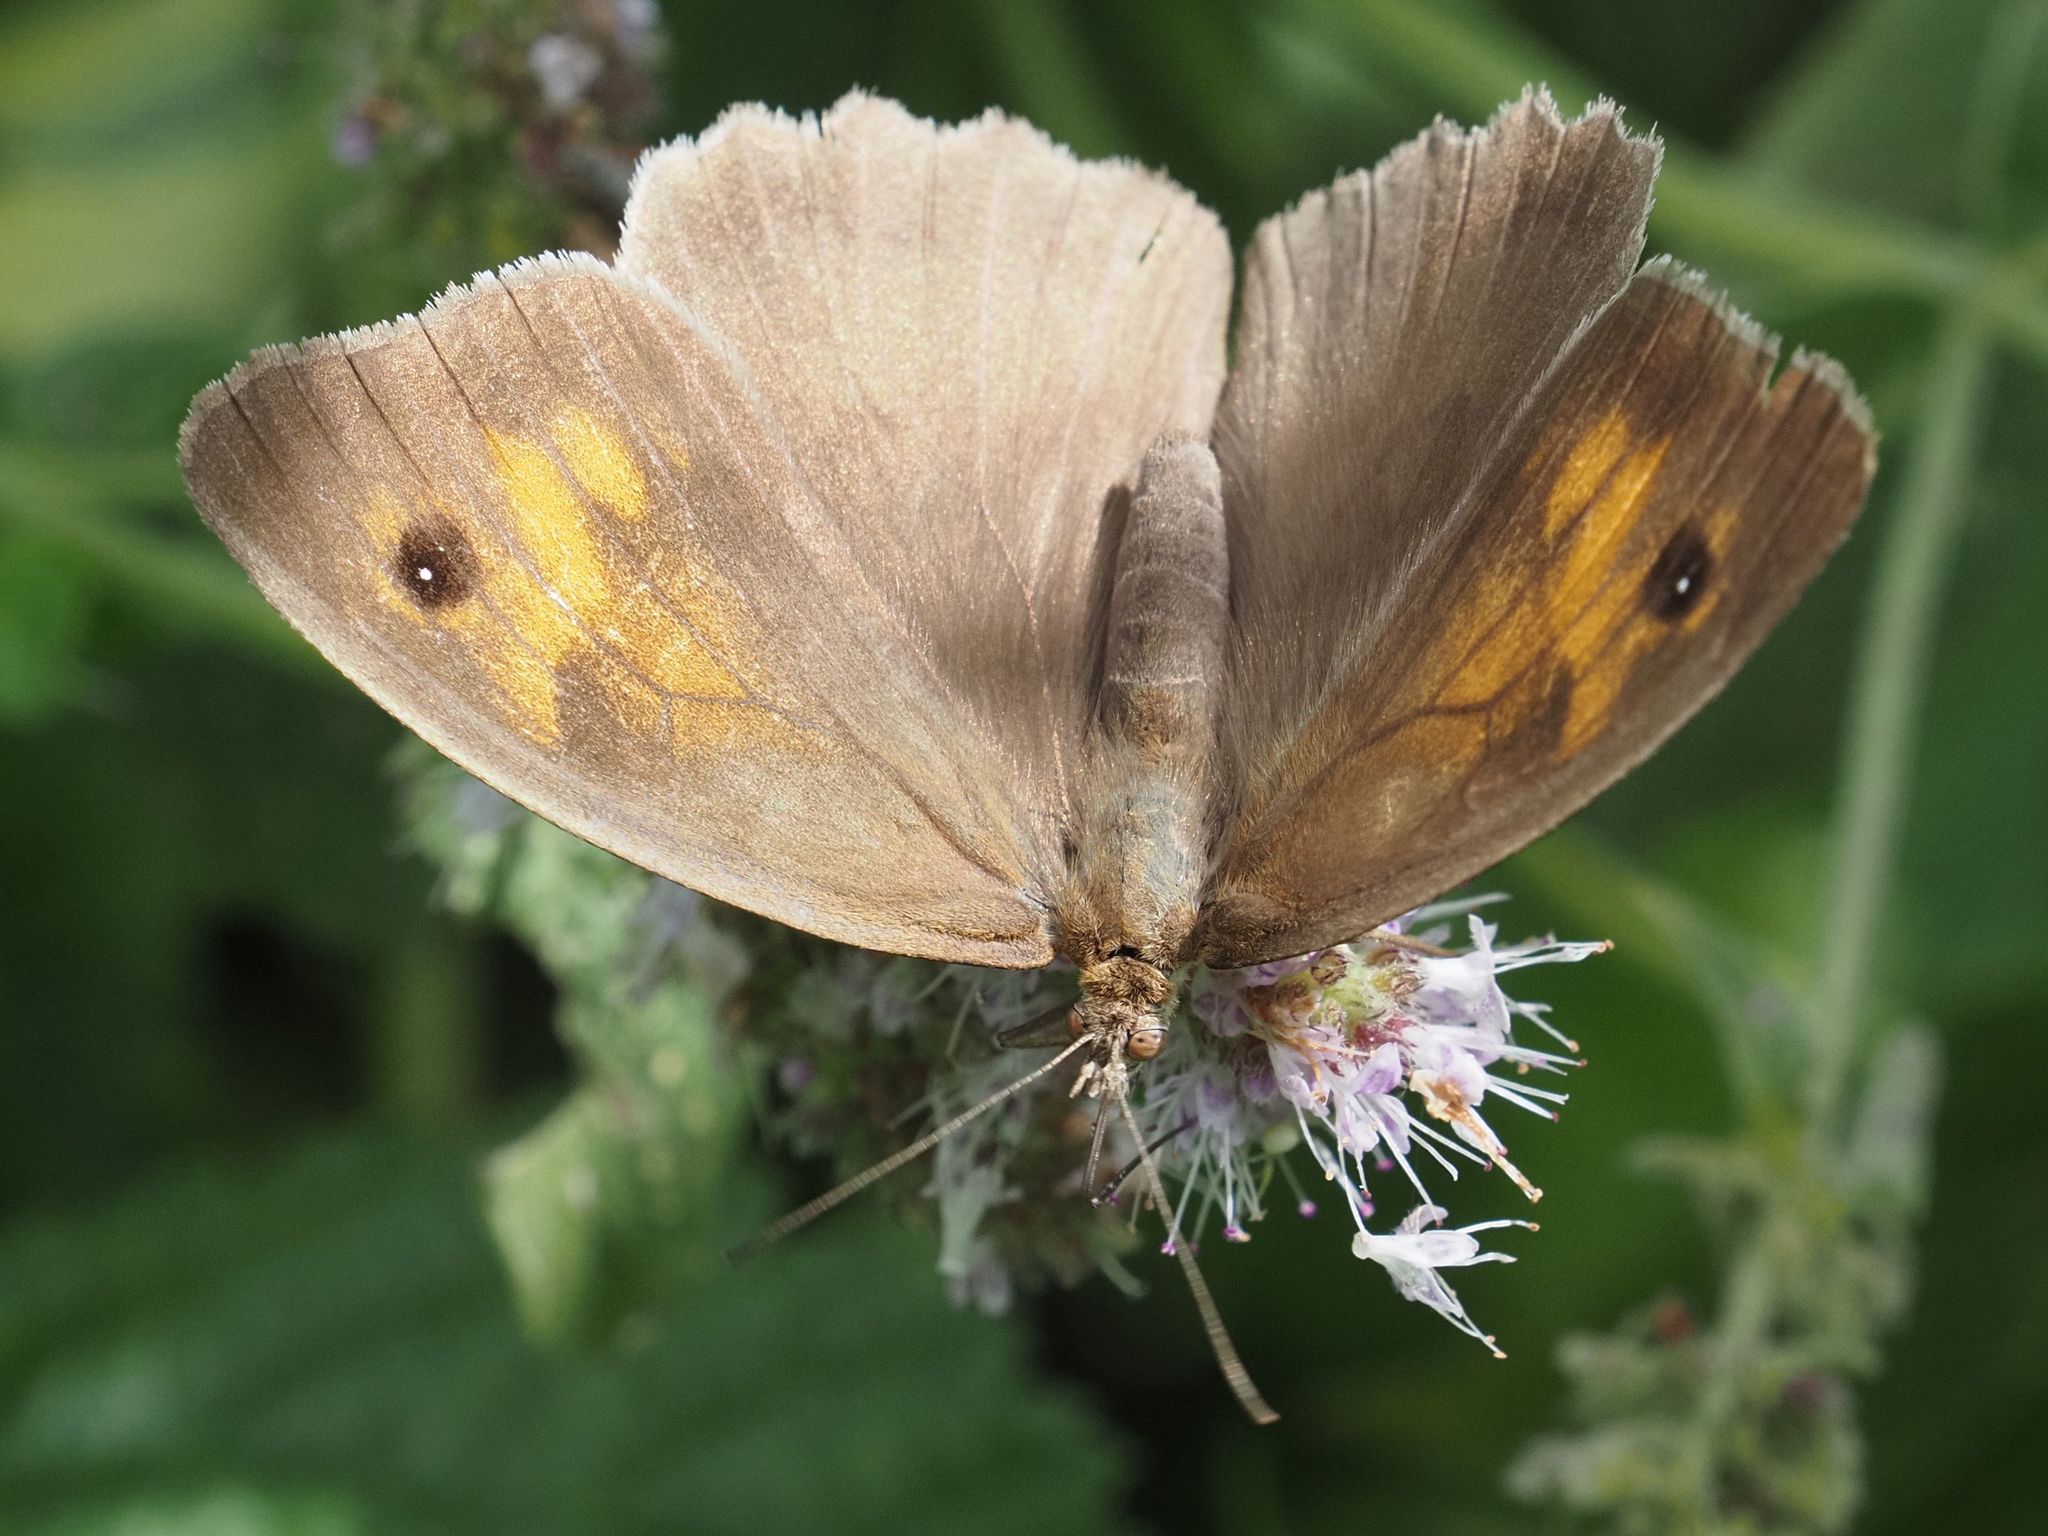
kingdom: Animalia
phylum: Arthropoda
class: Insecta
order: Lepidoptera
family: Nymphalidae
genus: Maniola
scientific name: Maniola jurtina
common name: Meadow brown
